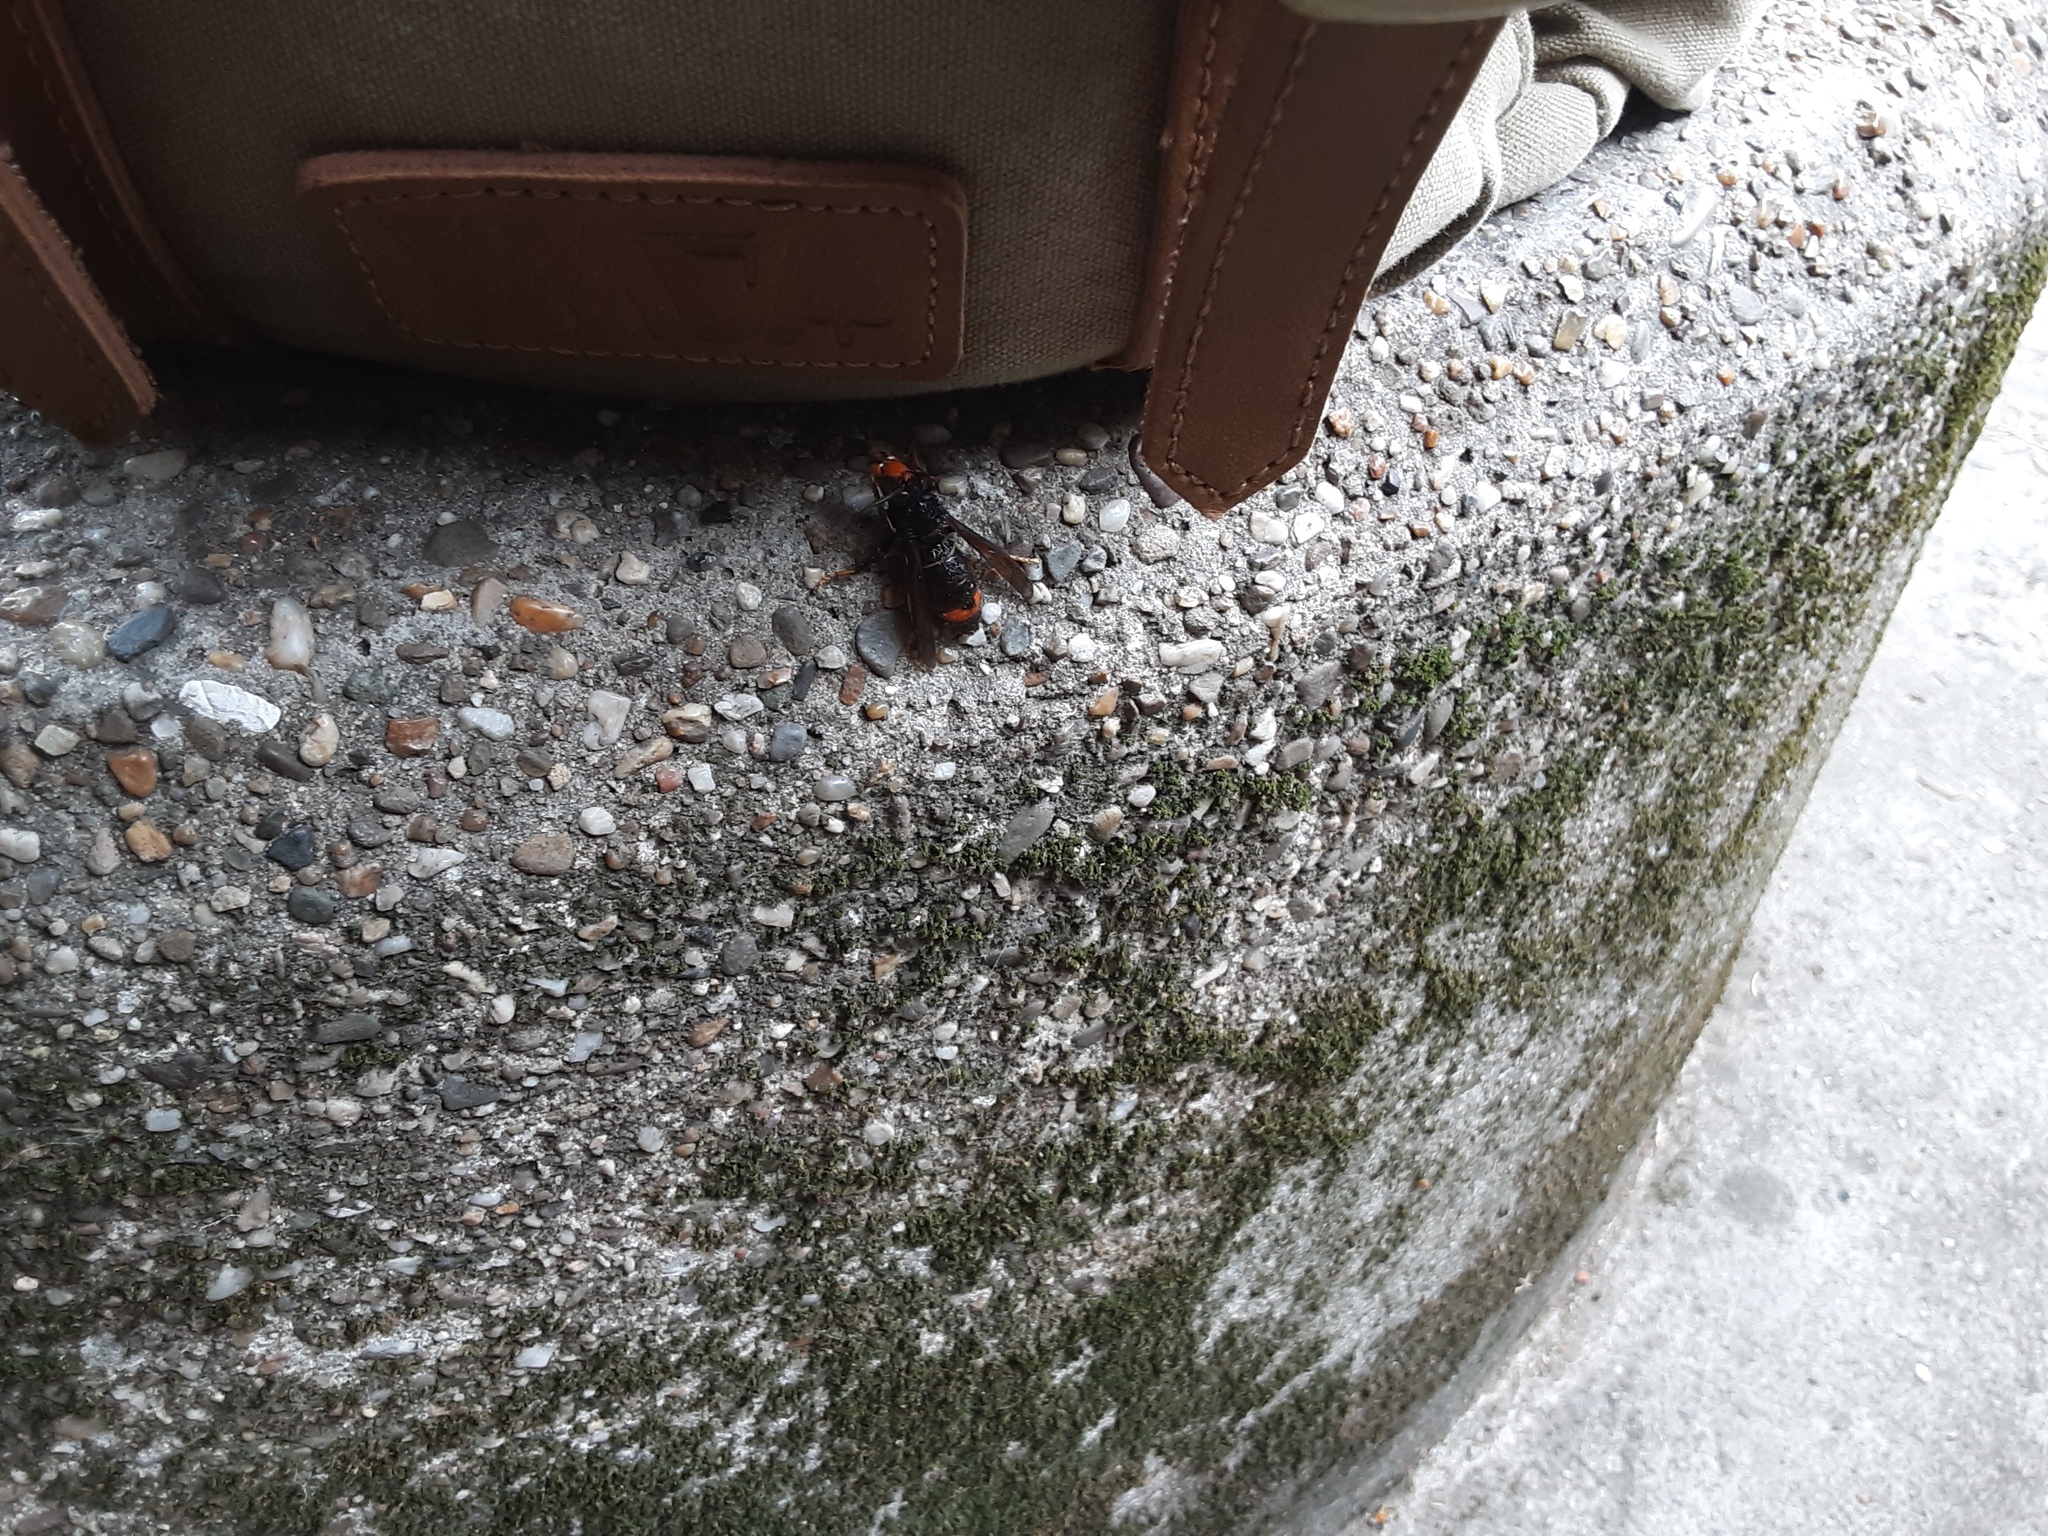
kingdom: Animalia
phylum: Arthropoda
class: Insecta
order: Hymenoptera
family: Vespidae
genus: Vespa
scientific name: Vespa velutina
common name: Asian hornet
